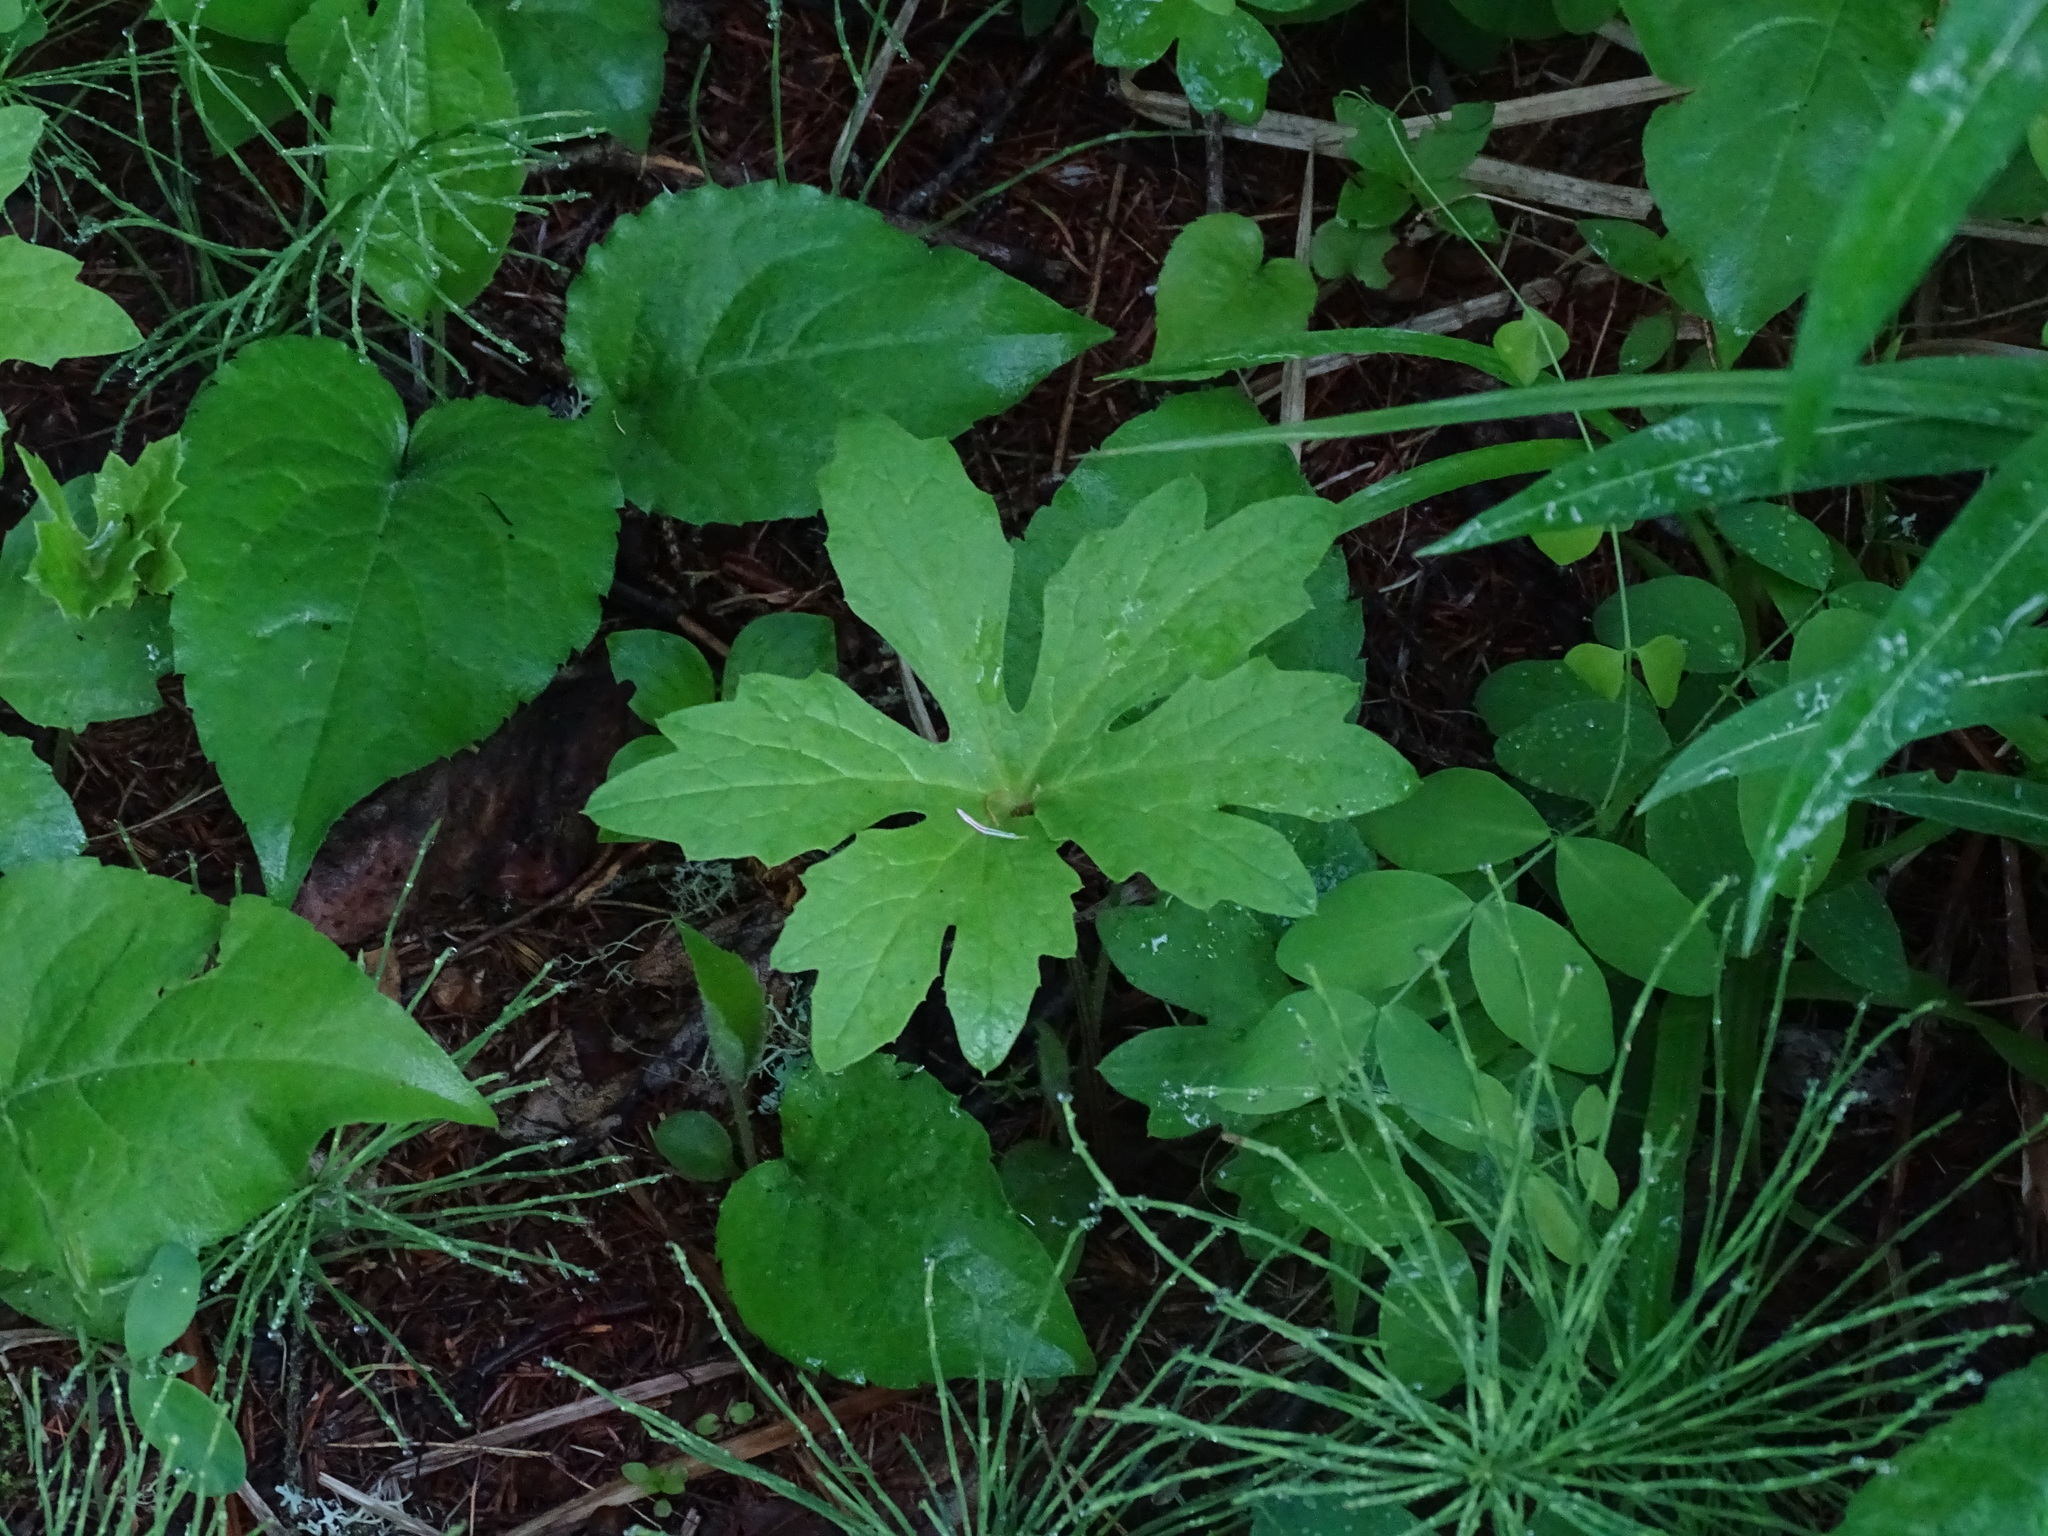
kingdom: Plantae
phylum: Tracheophyta
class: Magnoliopsida
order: Asterales
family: Asteraceae
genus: Petasites
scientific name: Petasites frigidus
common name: Arctic butterbur
